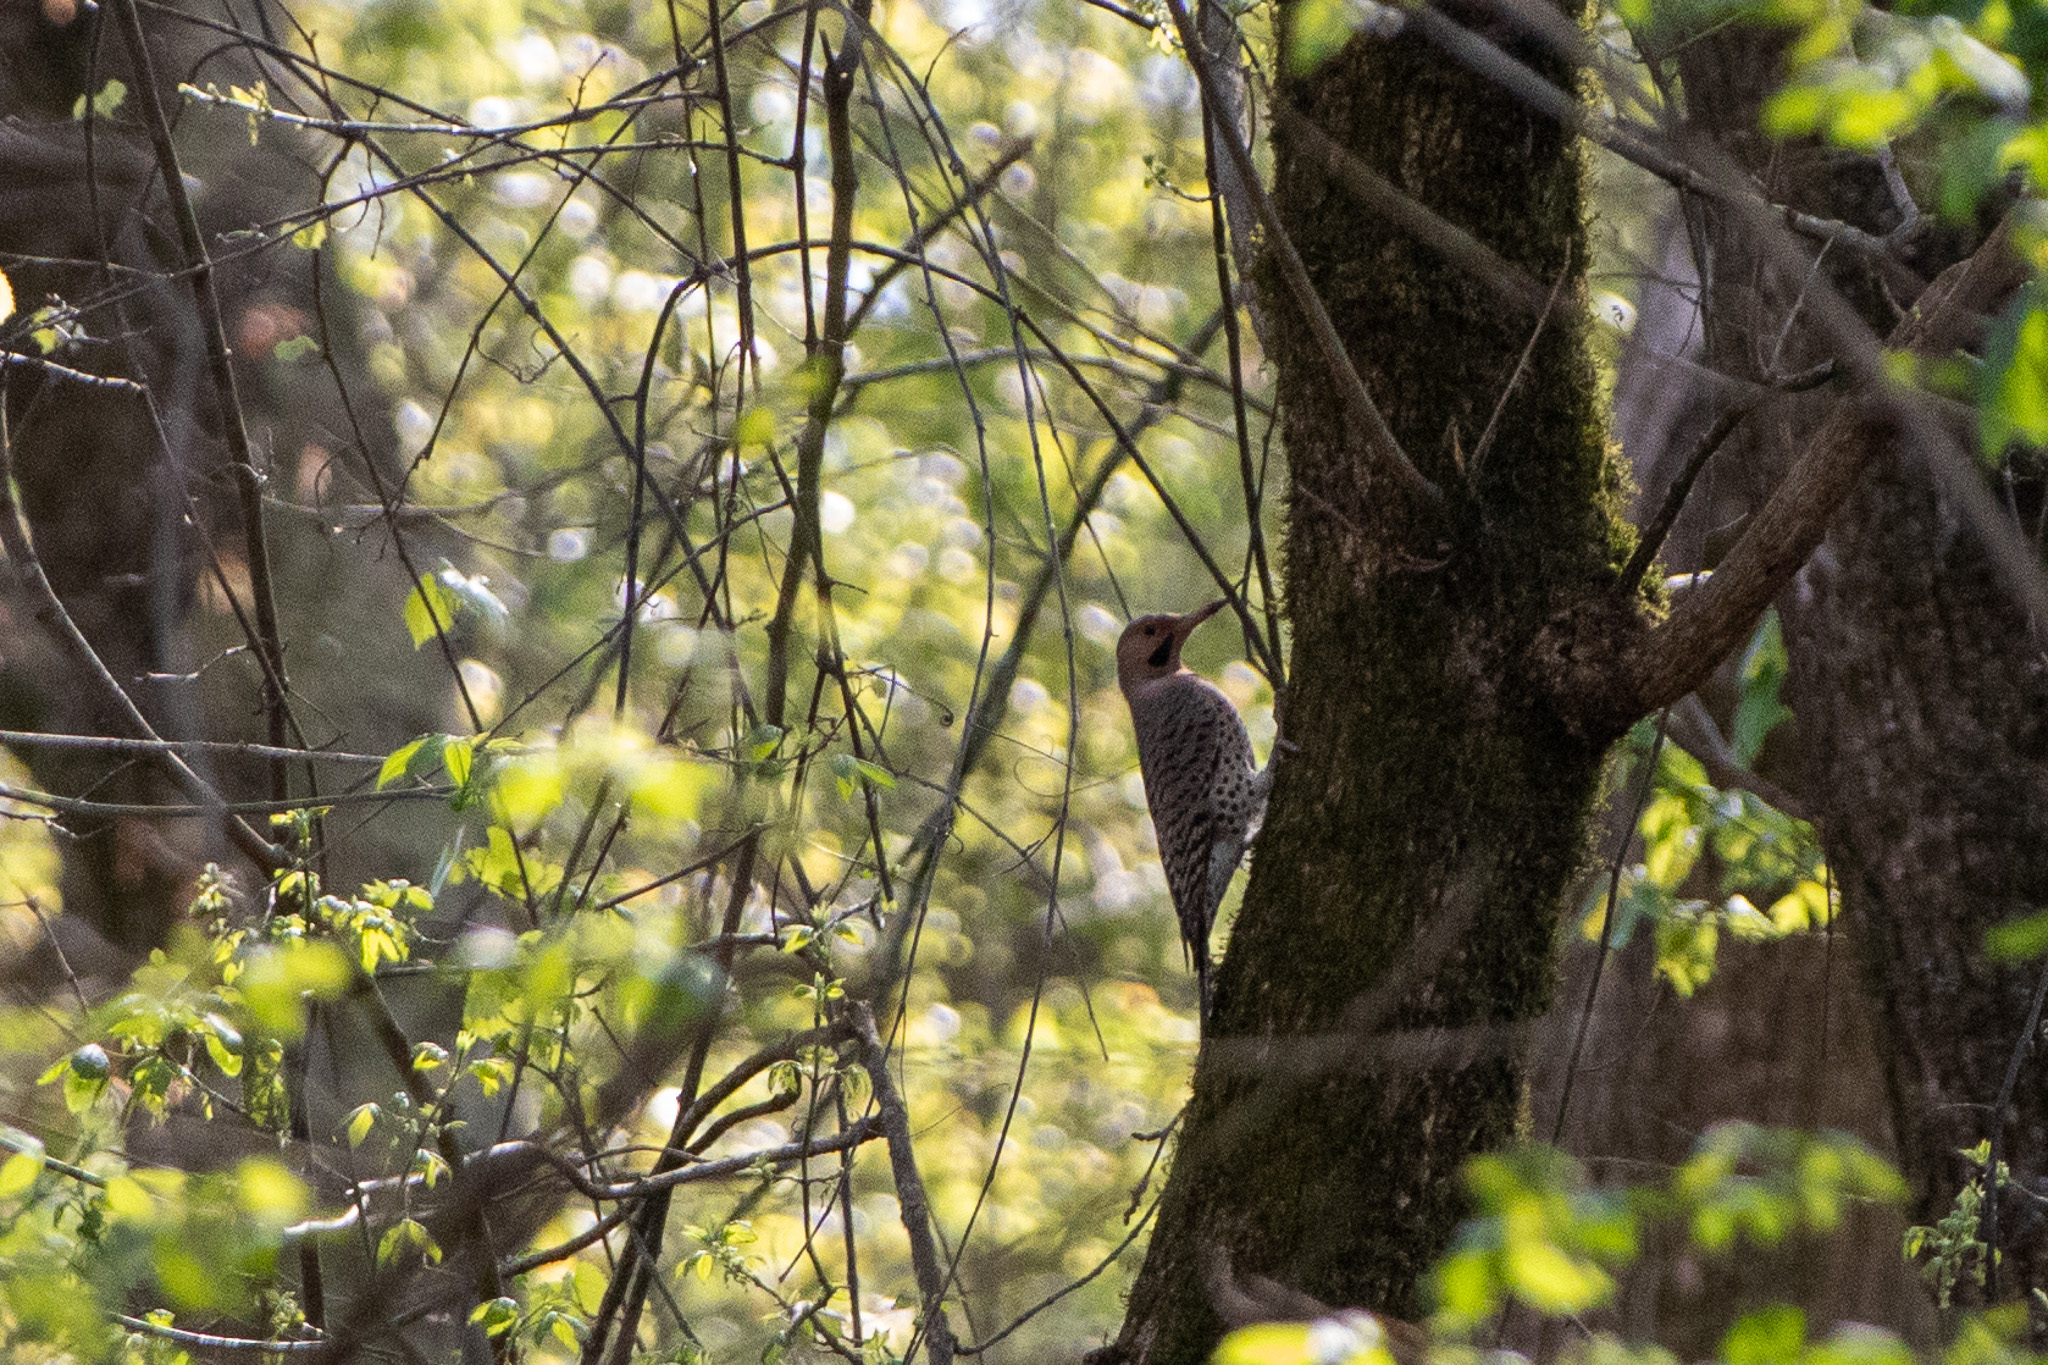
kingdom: Animalia
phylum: Chordata
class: Aves
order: Piciformes
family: Picidae
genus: Colaptes
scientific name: Colaptes auratus
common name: Northern flicker
